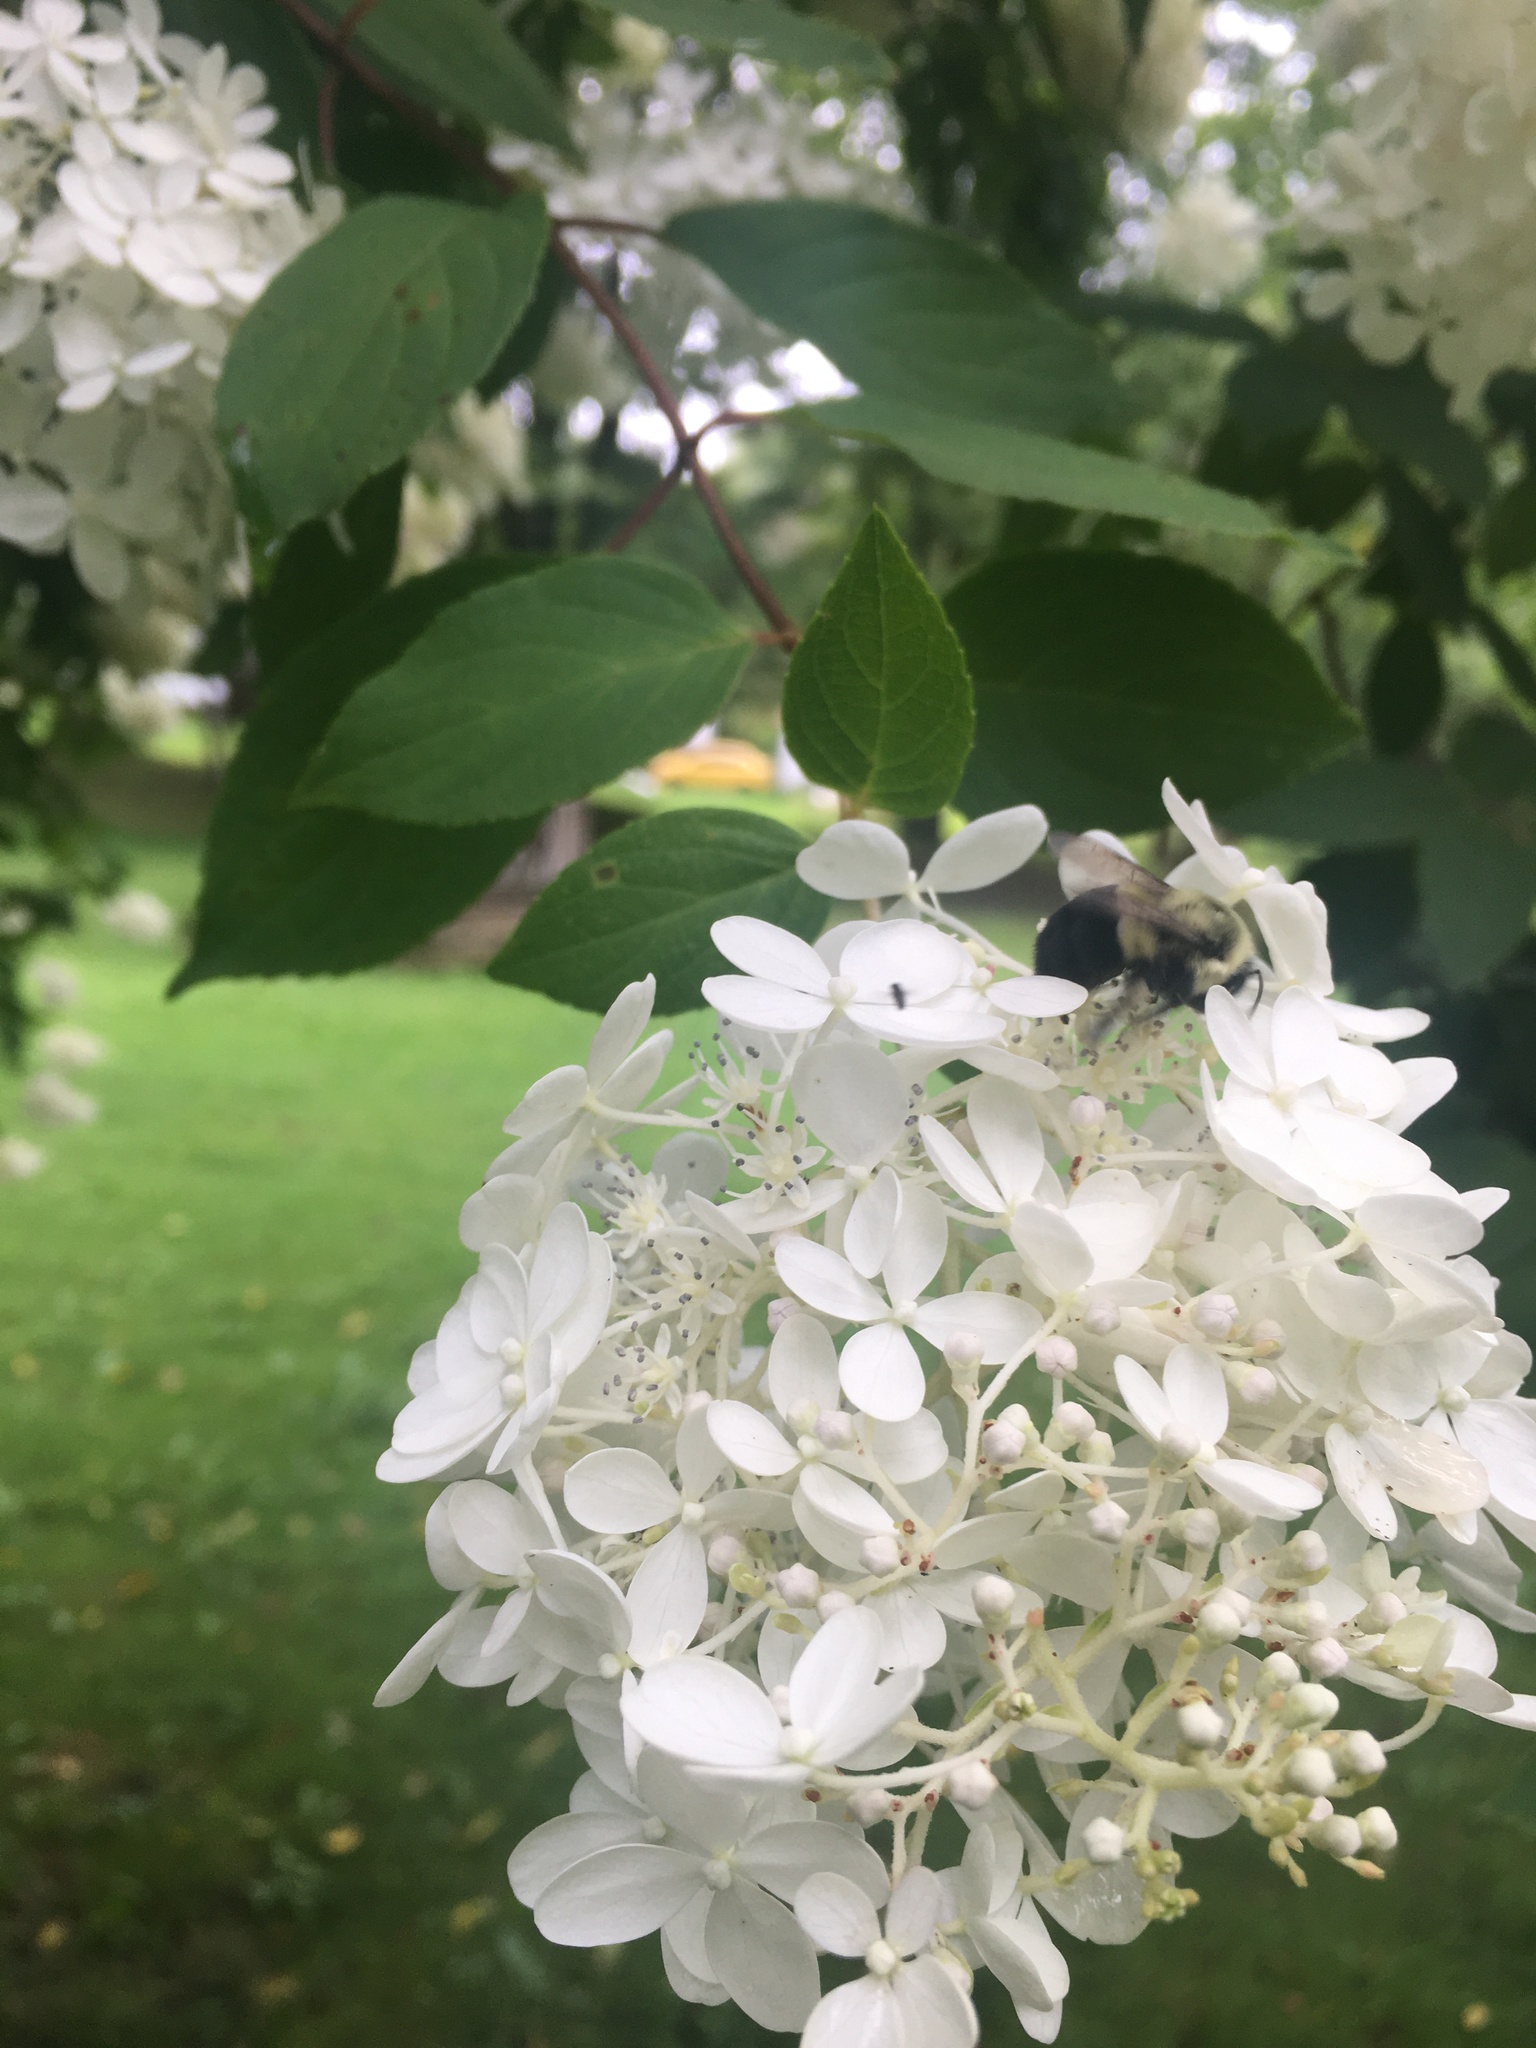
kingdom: Animalia
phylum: Arthropoda
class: Insecta
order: Hymenoptera
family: Apidae
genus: Bombus
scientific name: Bombus impatiens
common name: Common eastern bumble bee
